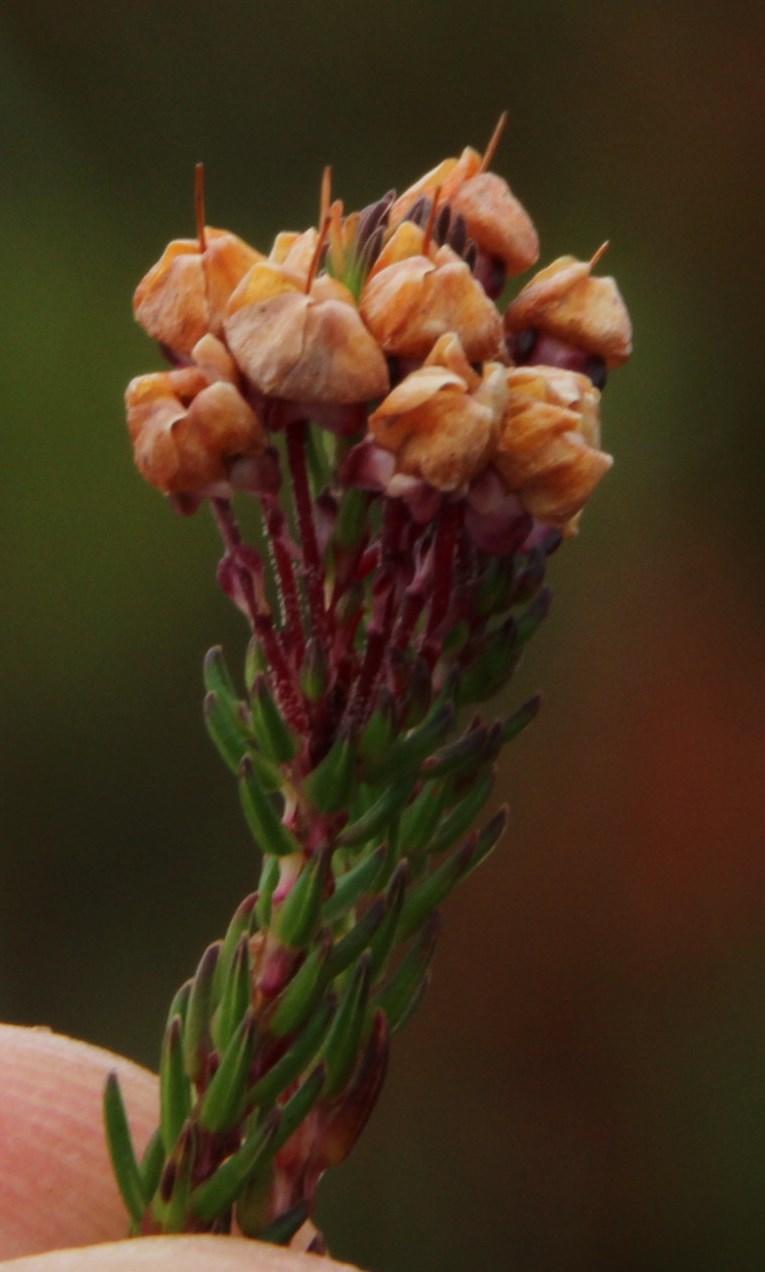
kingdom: Plantae
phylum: Tracheophyta
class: Magnoliopsida
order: Ericales
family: Ericaceae
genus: Erica
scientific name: Erica cubica
